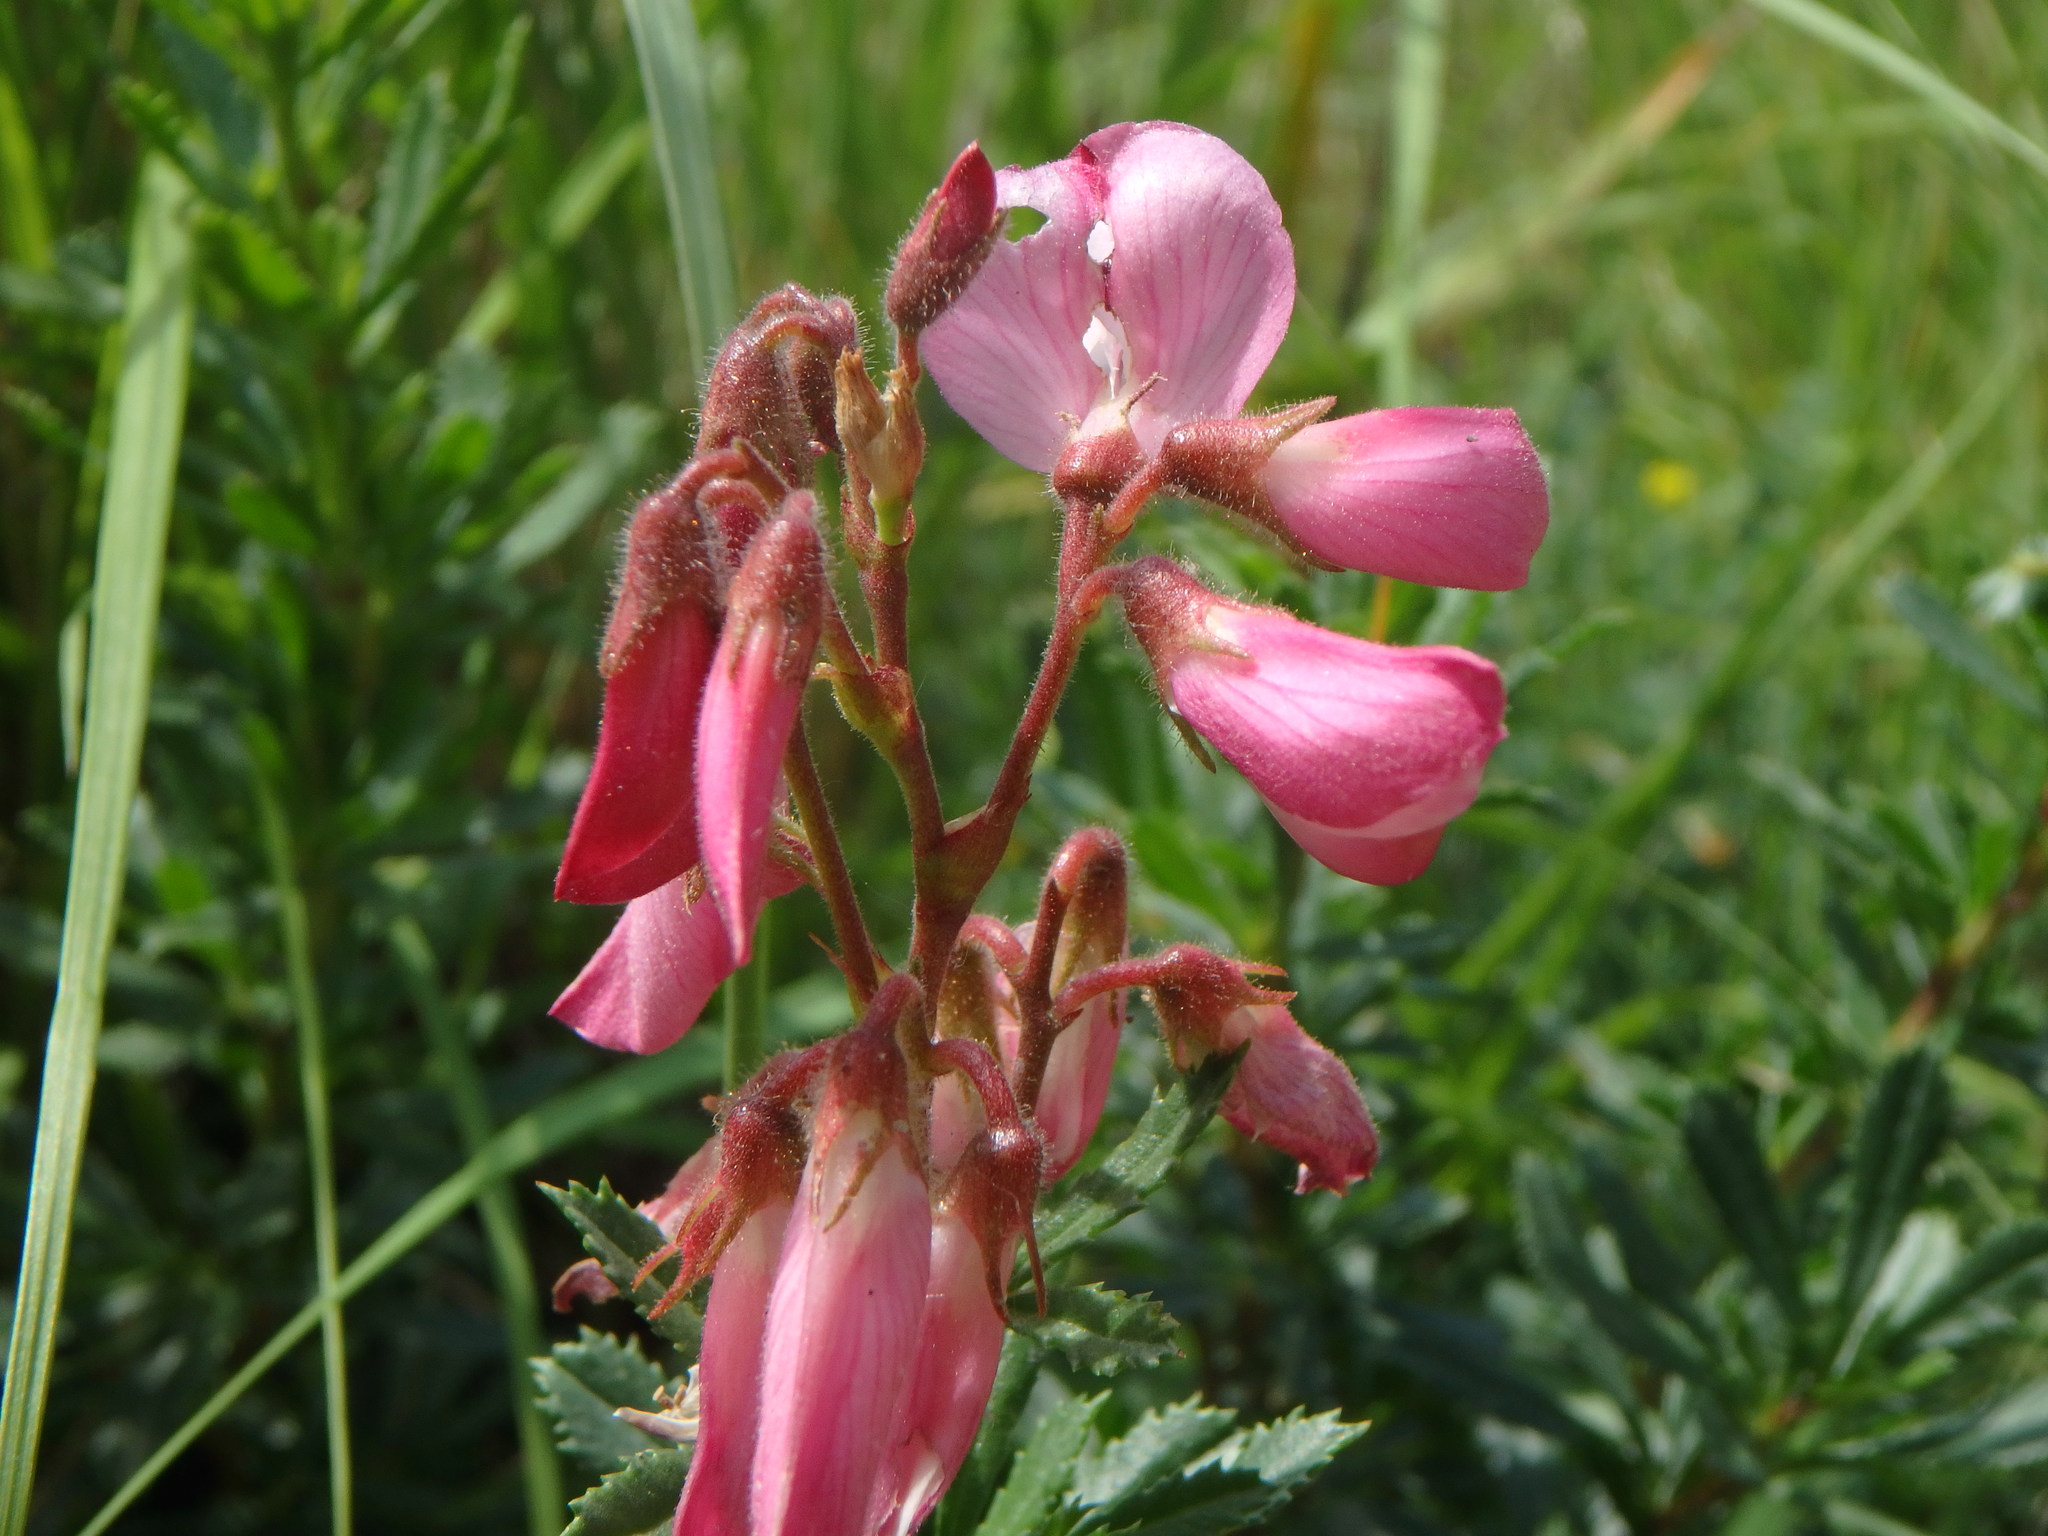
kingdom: Plantae
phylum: Tracheophyta
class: Magnoliopsida
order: Fabales
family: Fabaceae
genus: Ononis
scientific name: Ononis fruticosa
